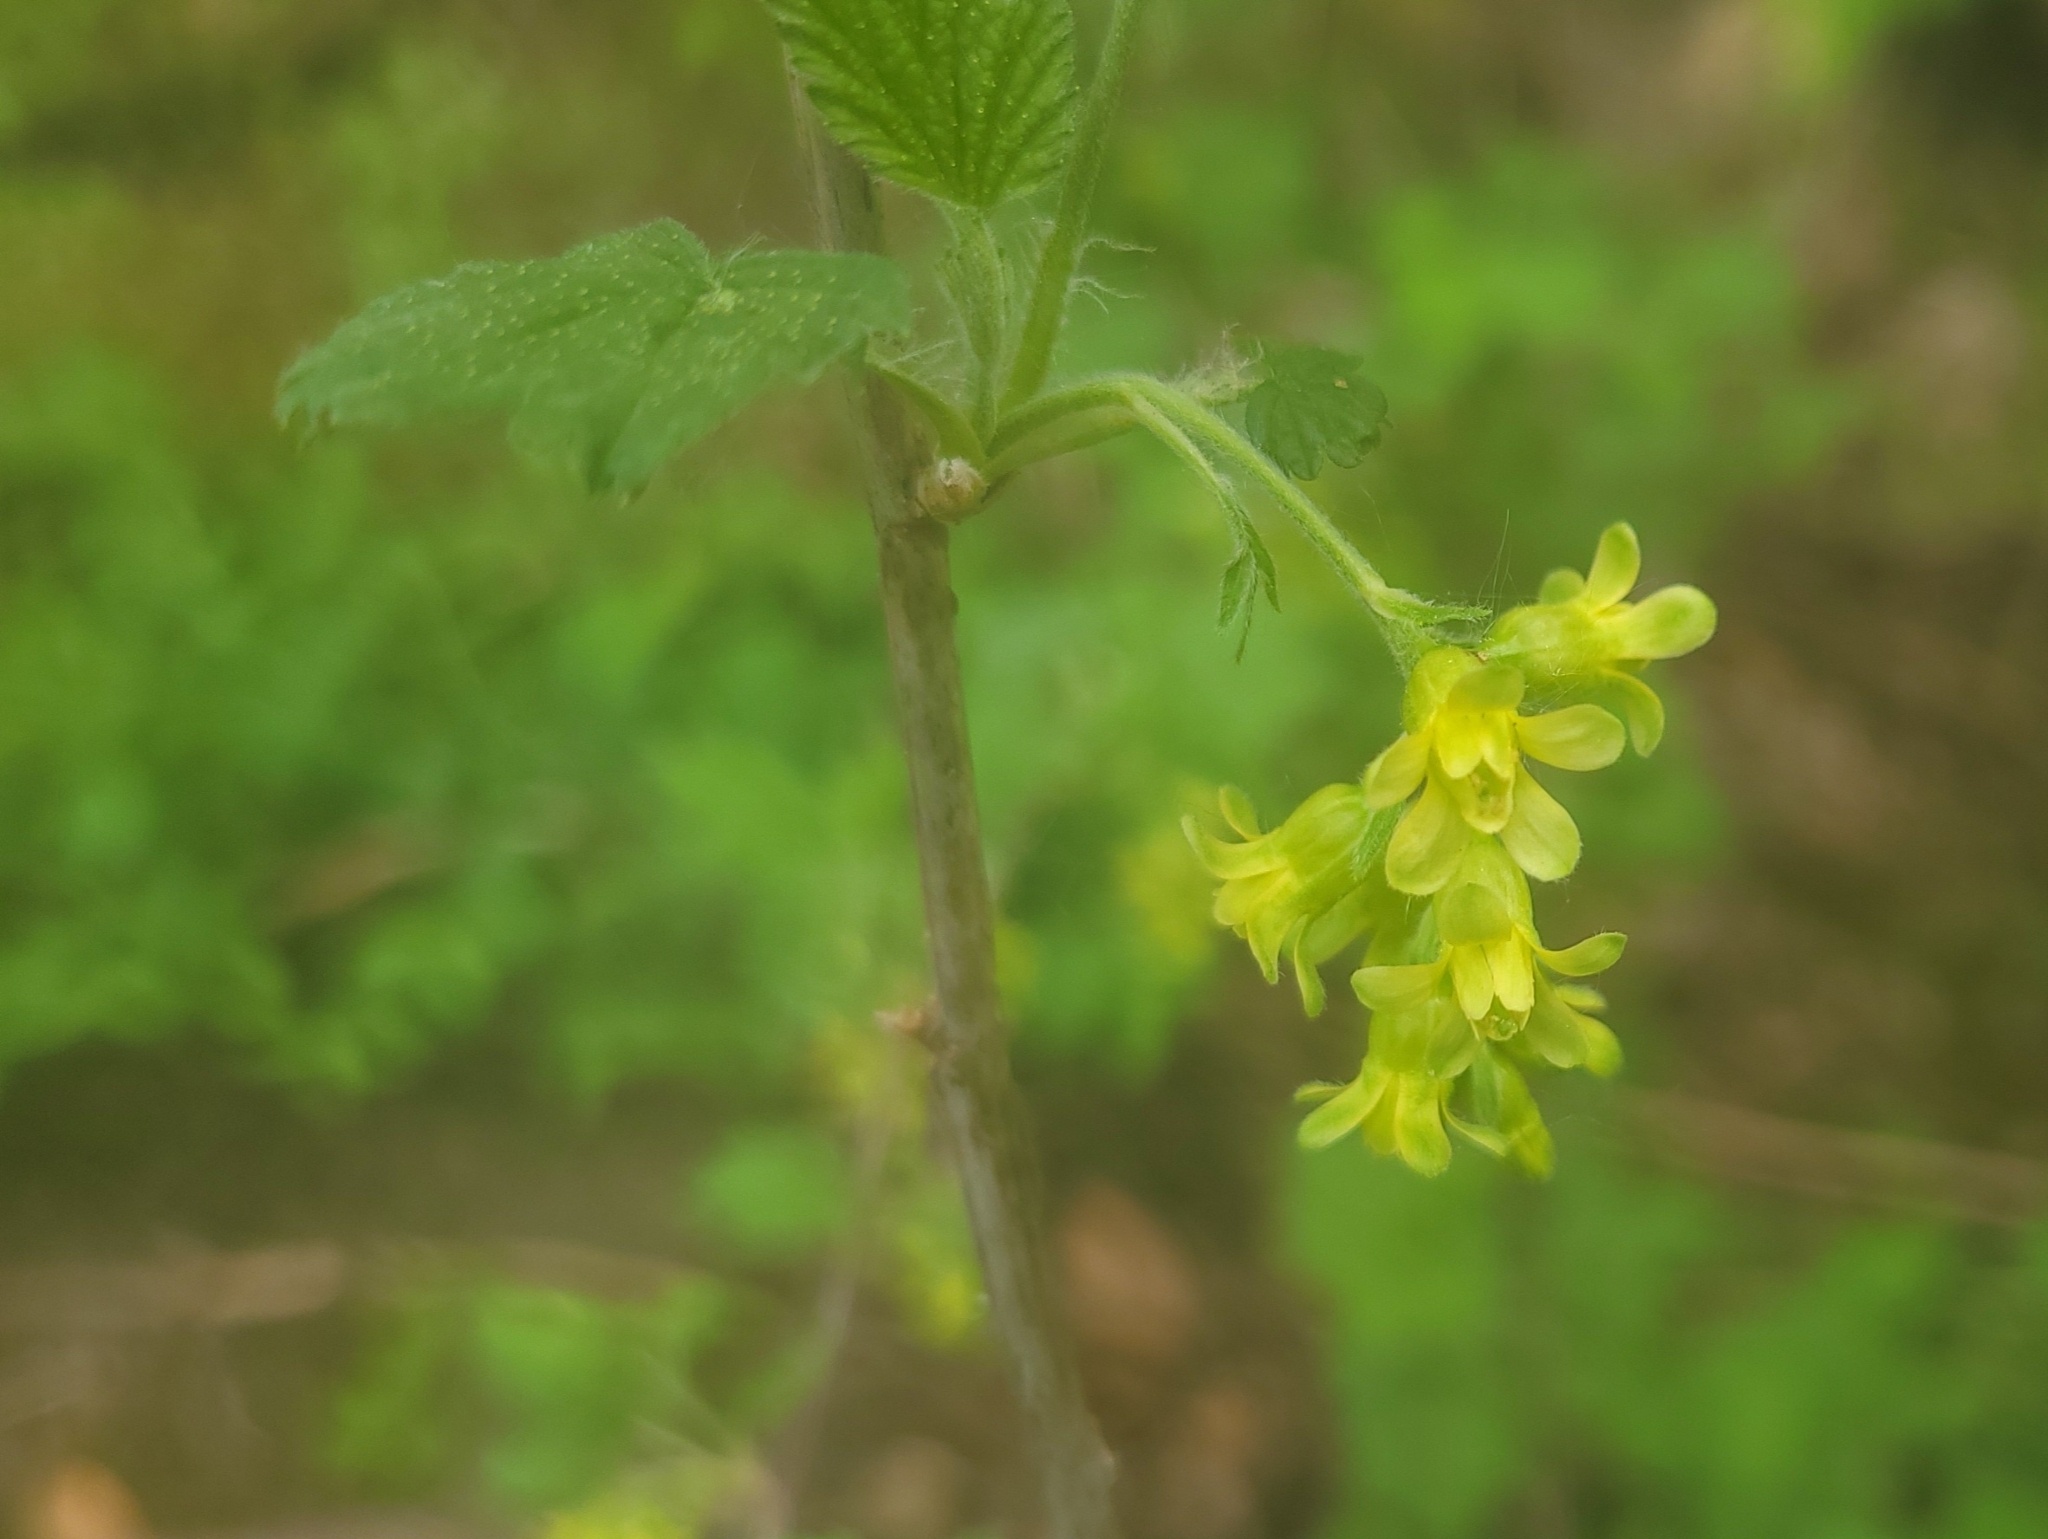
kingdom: Plantae
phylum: Tracheophyta
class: Magnoliopsida
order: Saxifragales
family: Grossulariaceae
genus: Ribes
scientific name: Ribes americanum
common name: American black currant
